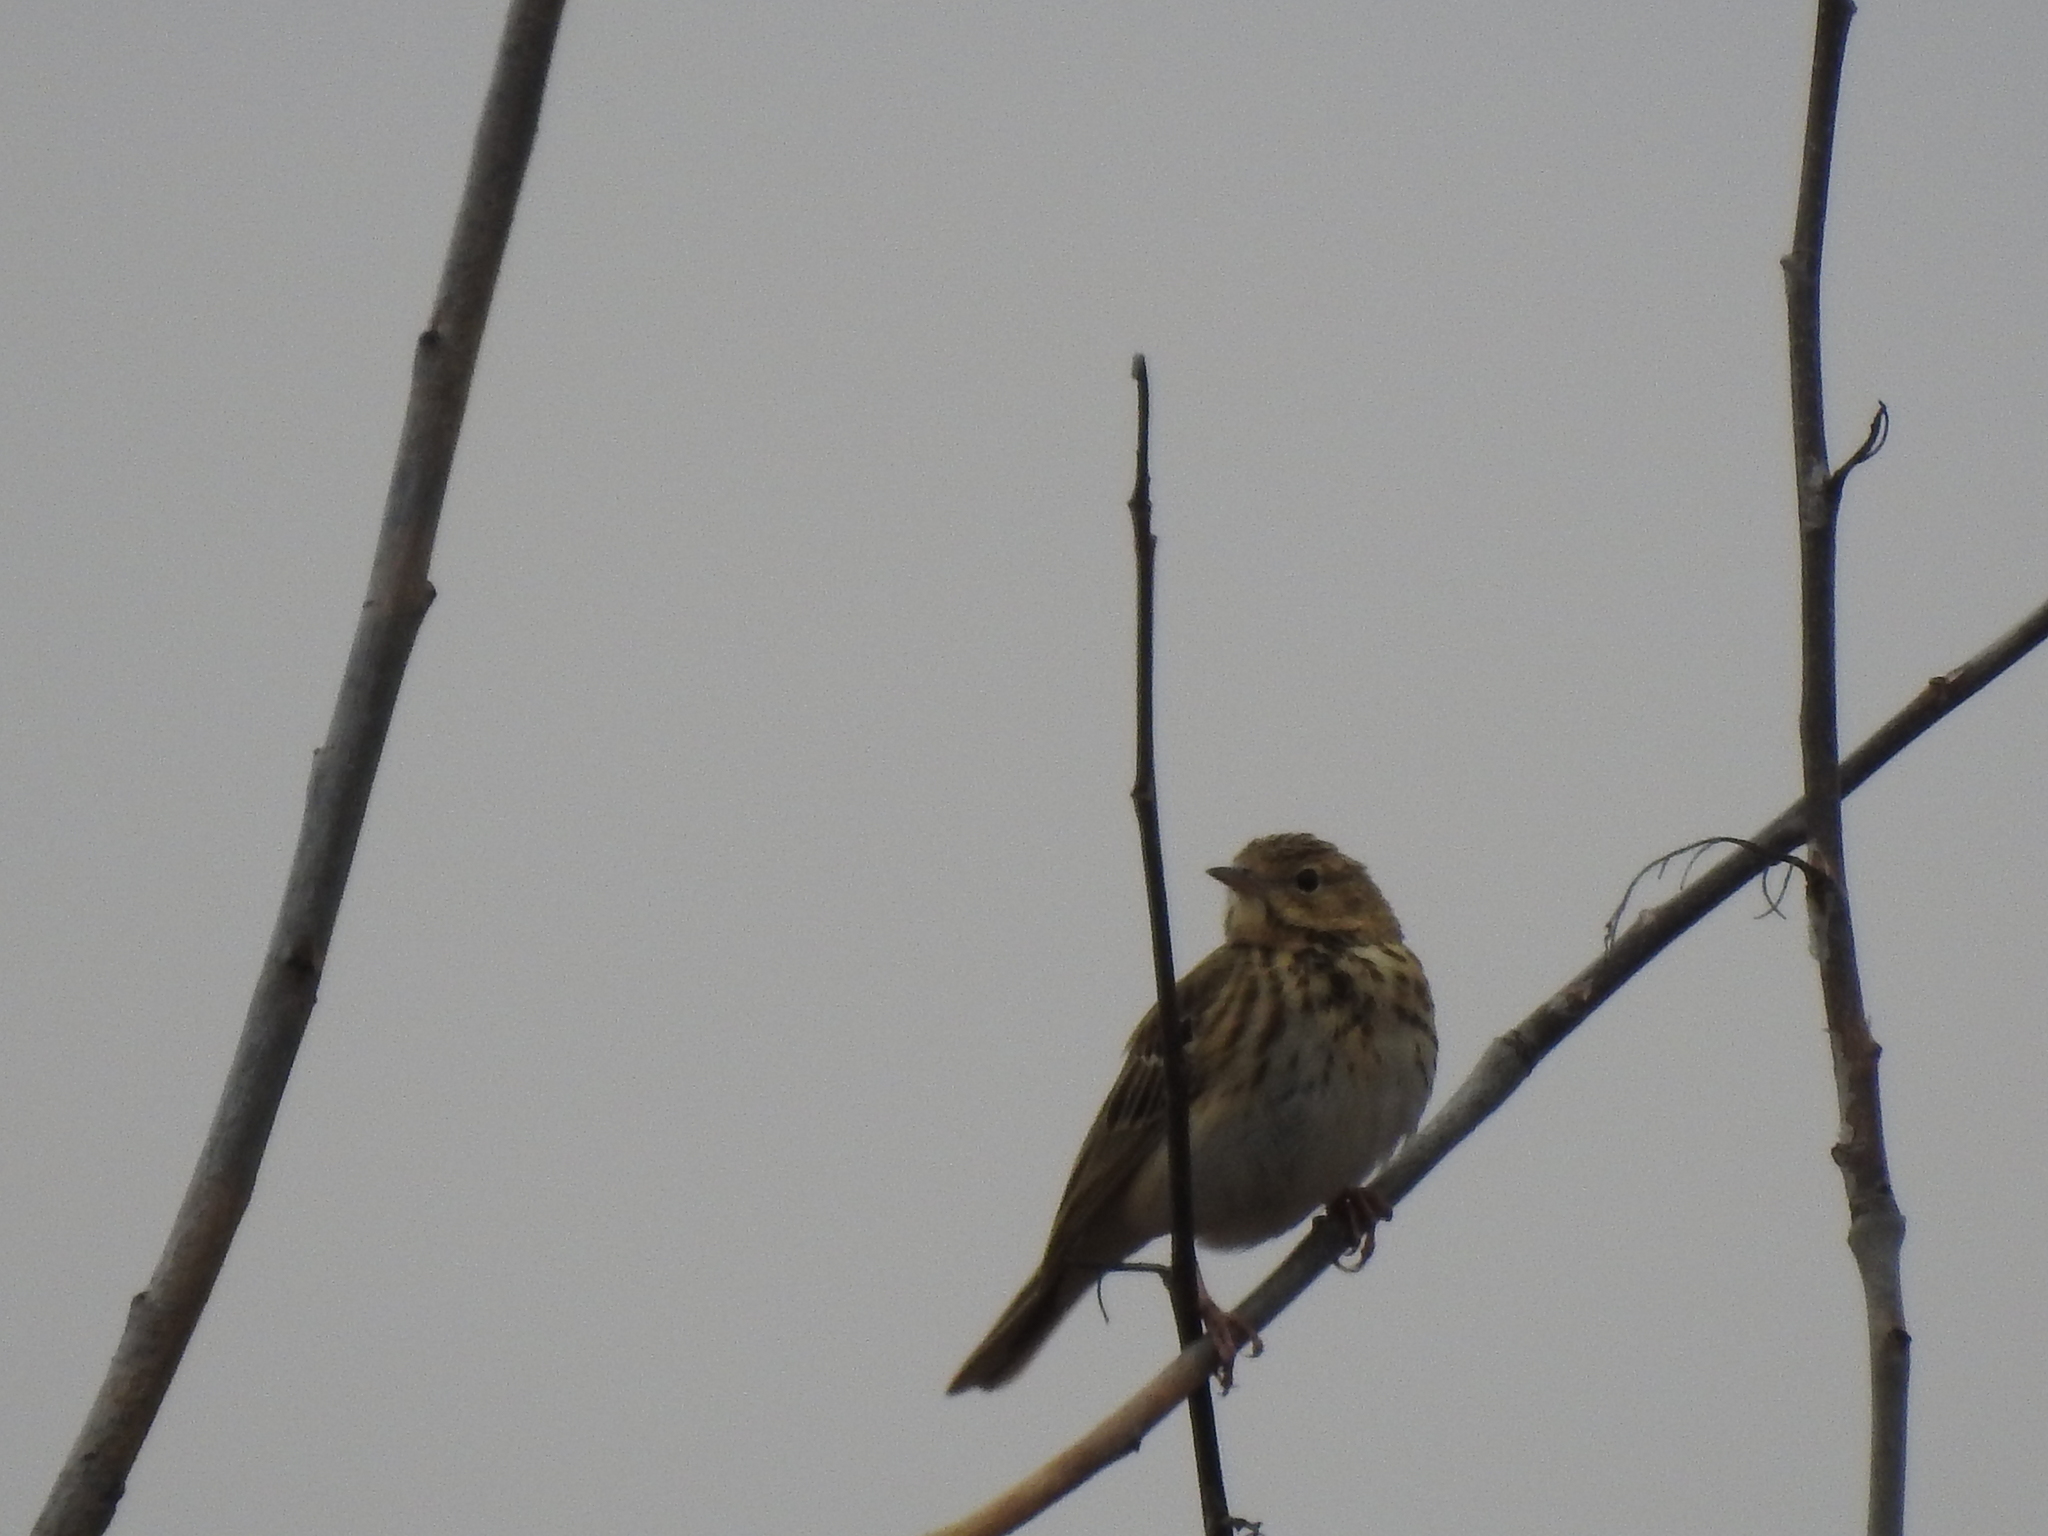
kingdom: Animalia
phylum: Chordata
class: Aves
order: Passeriformes
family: Motacillidae
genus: Anthus
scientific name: Anthus trivialis
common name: Tree pipit
